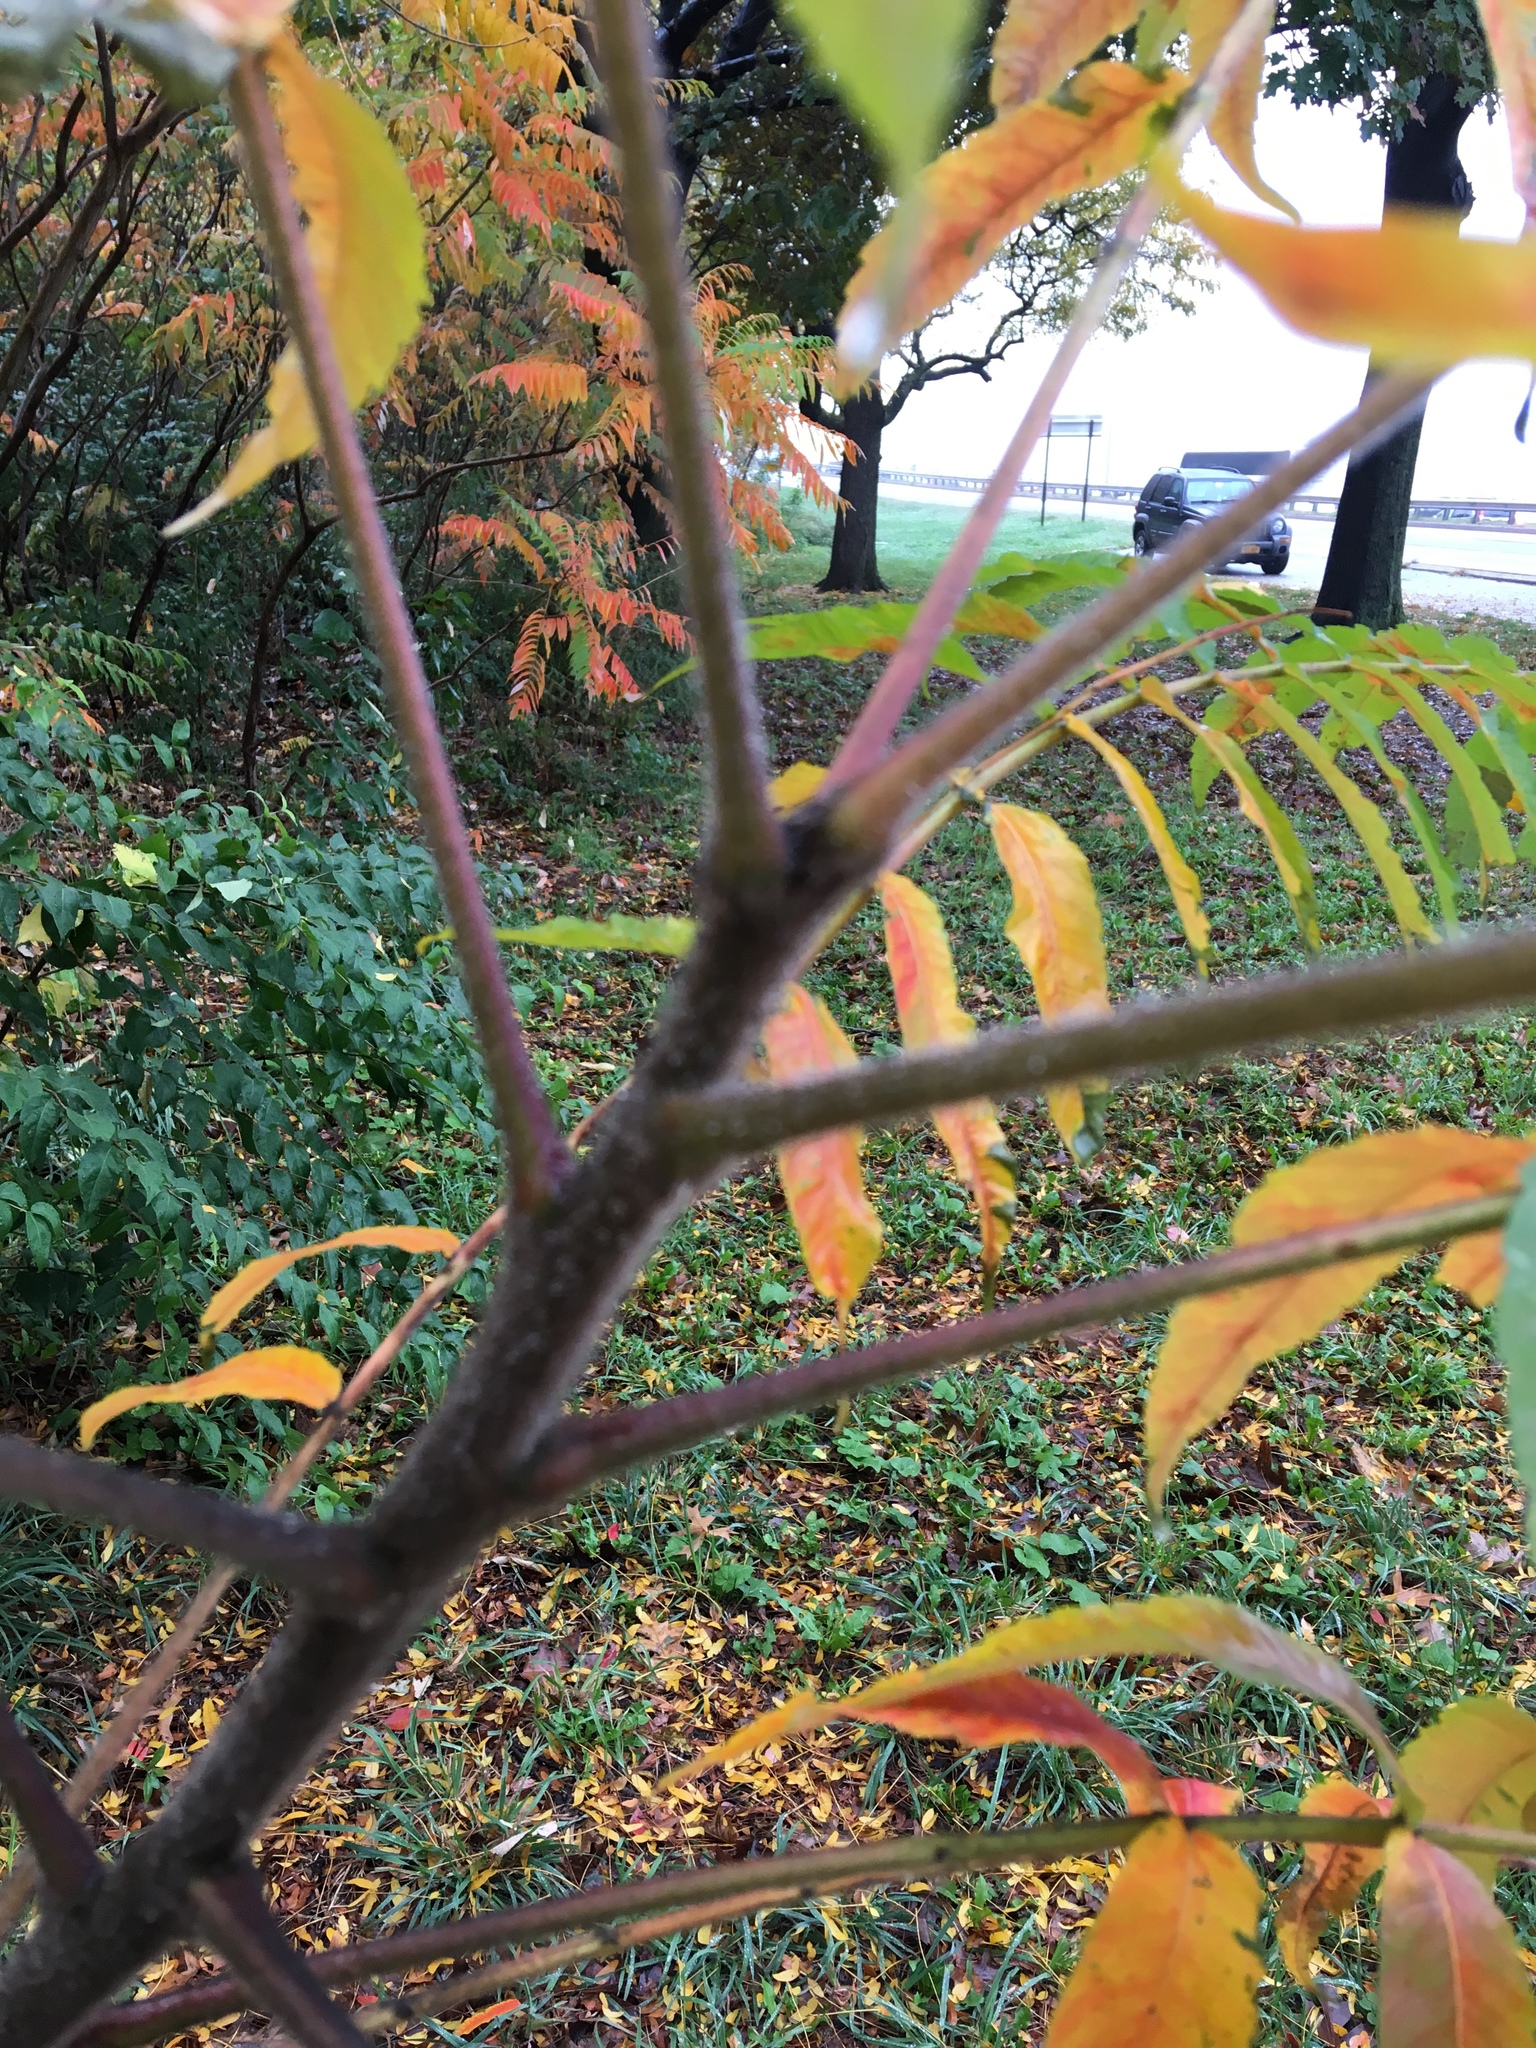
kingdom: Plantae
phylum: Tracheophyta
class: Magnoliopsida
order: Sapindales
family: Anacardiaceae
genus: Rhus
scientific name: Rhus typhina
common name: Staghorn sumac
